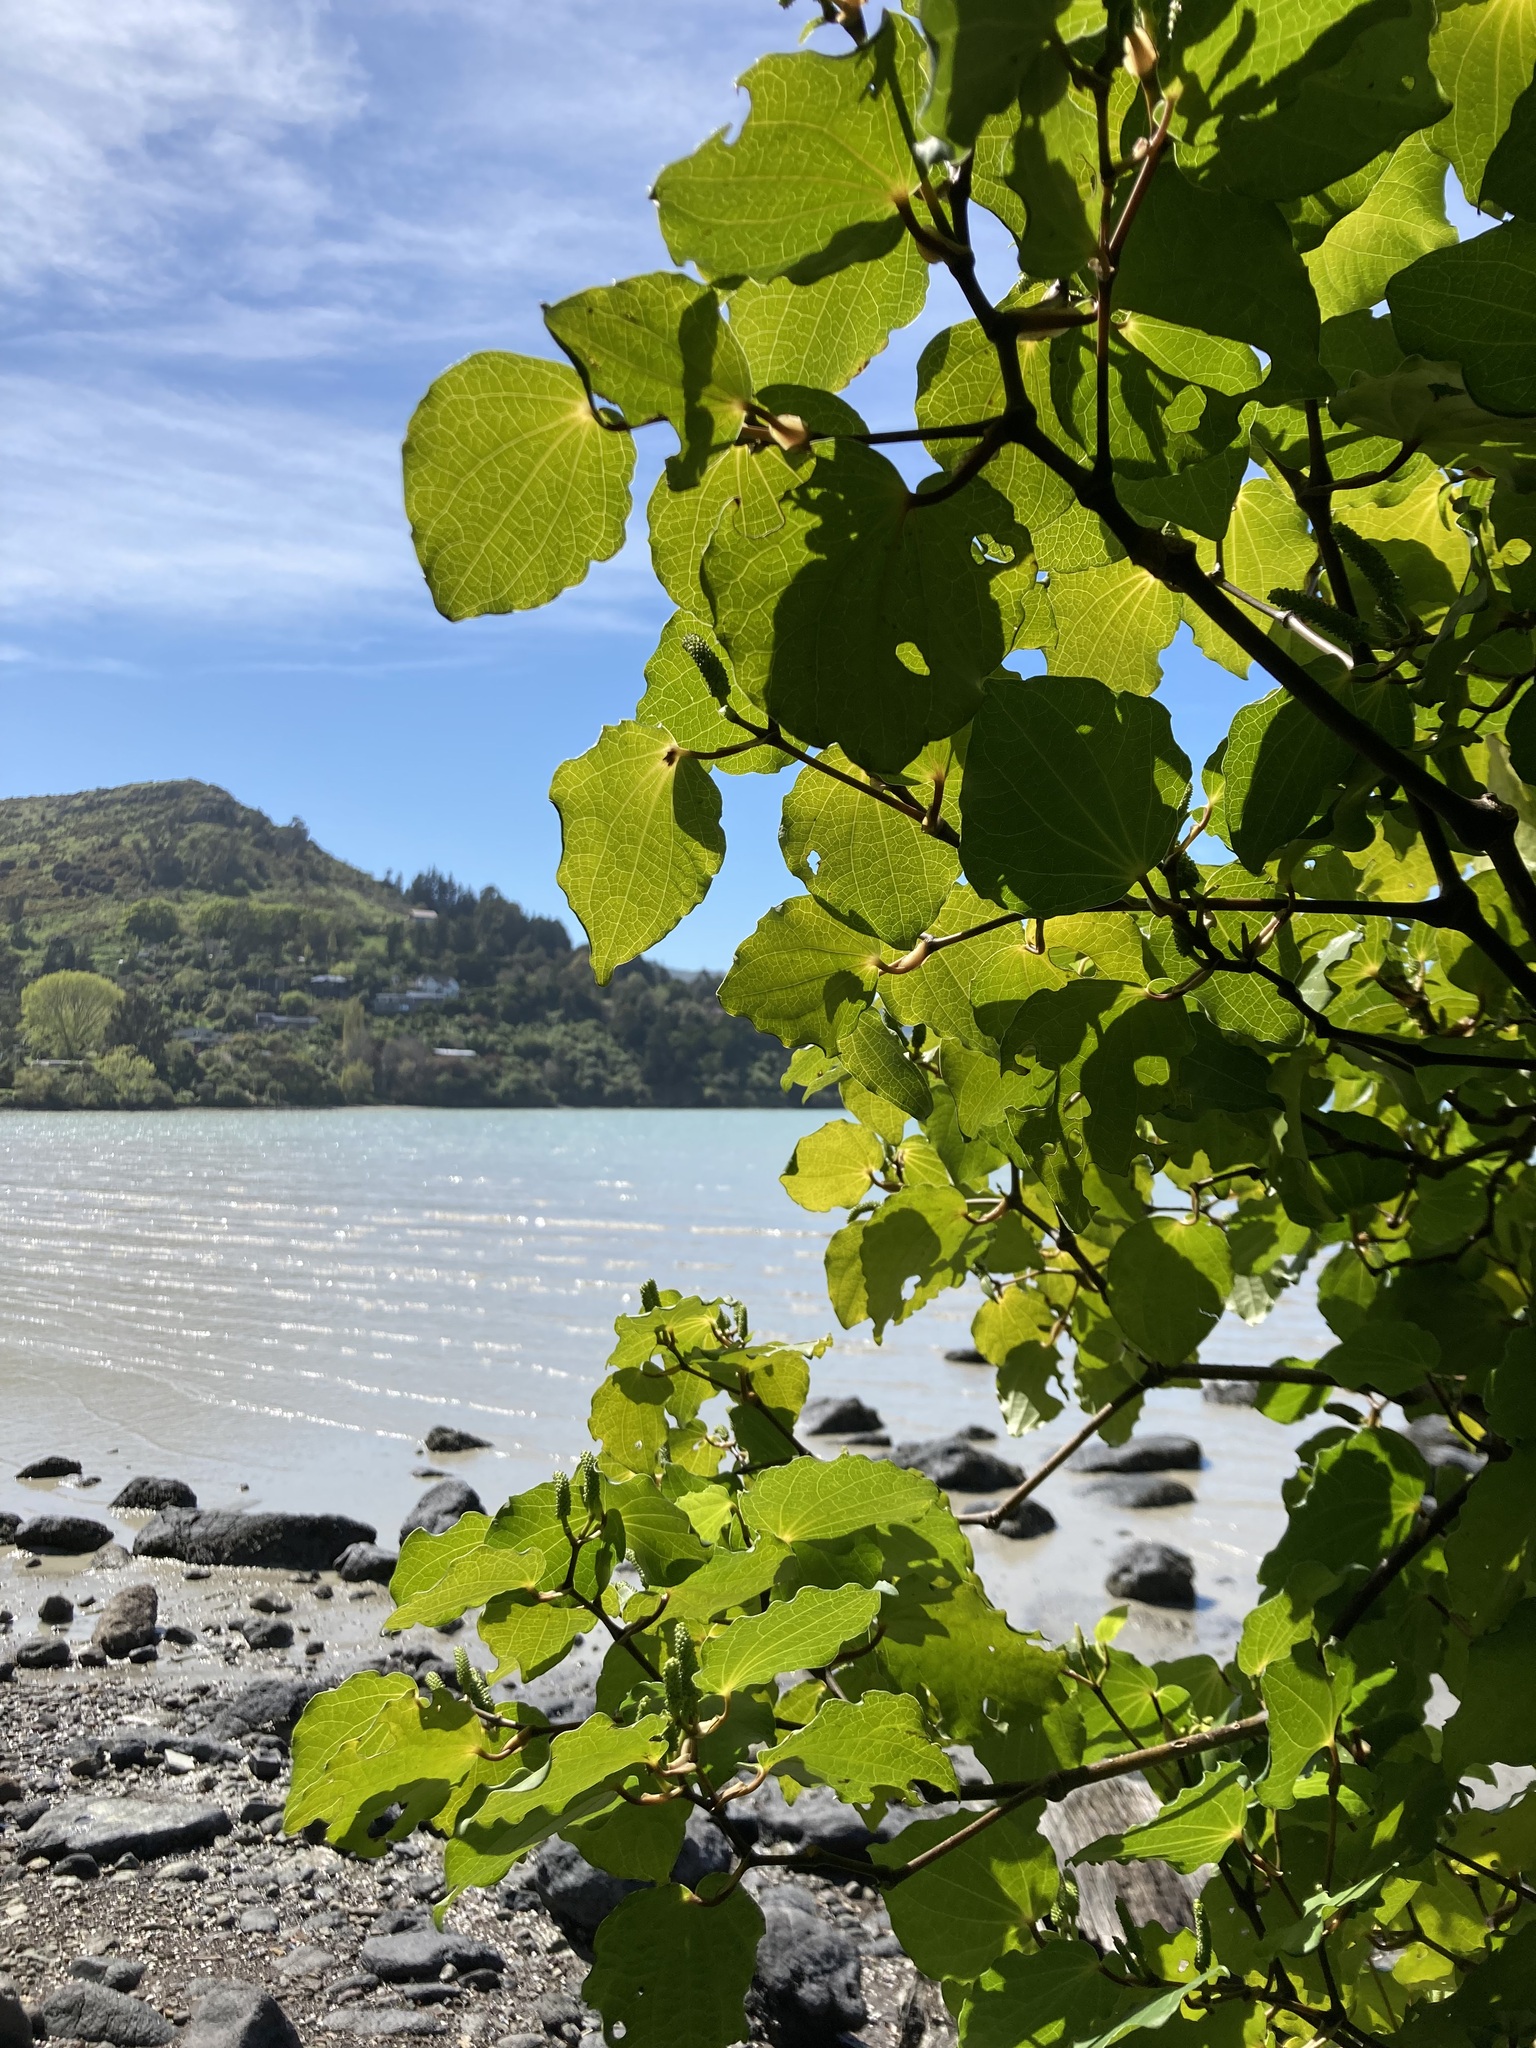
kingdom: Plantae
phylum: Tracheophyta
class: Magnoliopsida
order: Piperales
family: Piperaceae
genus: Macropiper
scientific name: Macropiper excelsum
